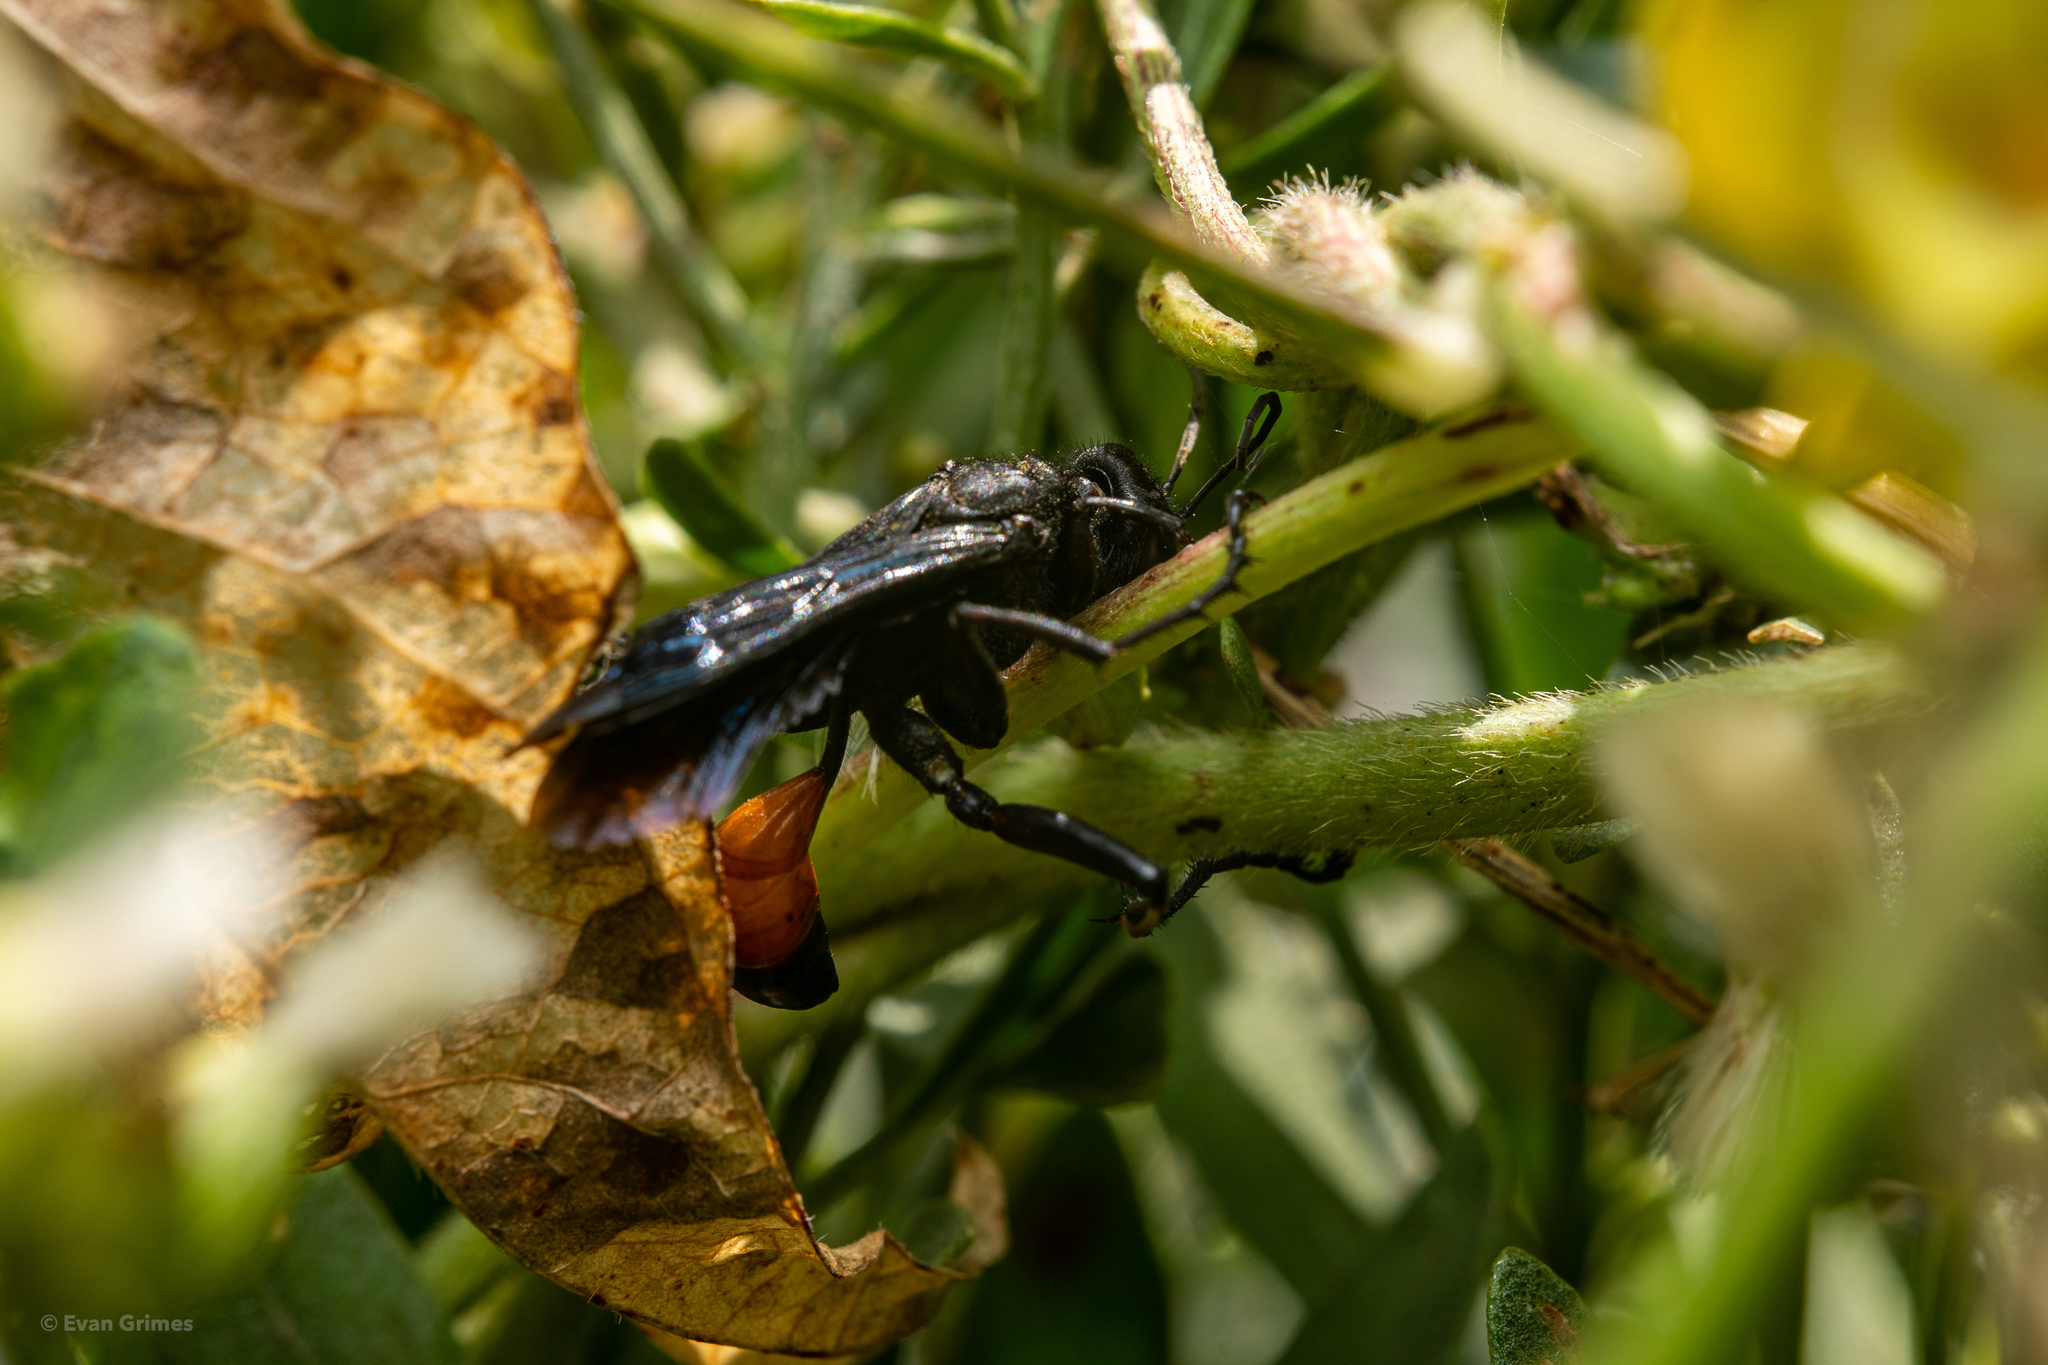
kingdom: Animalia
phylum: Arthropoda
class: Insecta
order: Hymenoptera
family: Sphecidae
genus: Palmodes
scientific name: Palmodes dimidiatus
